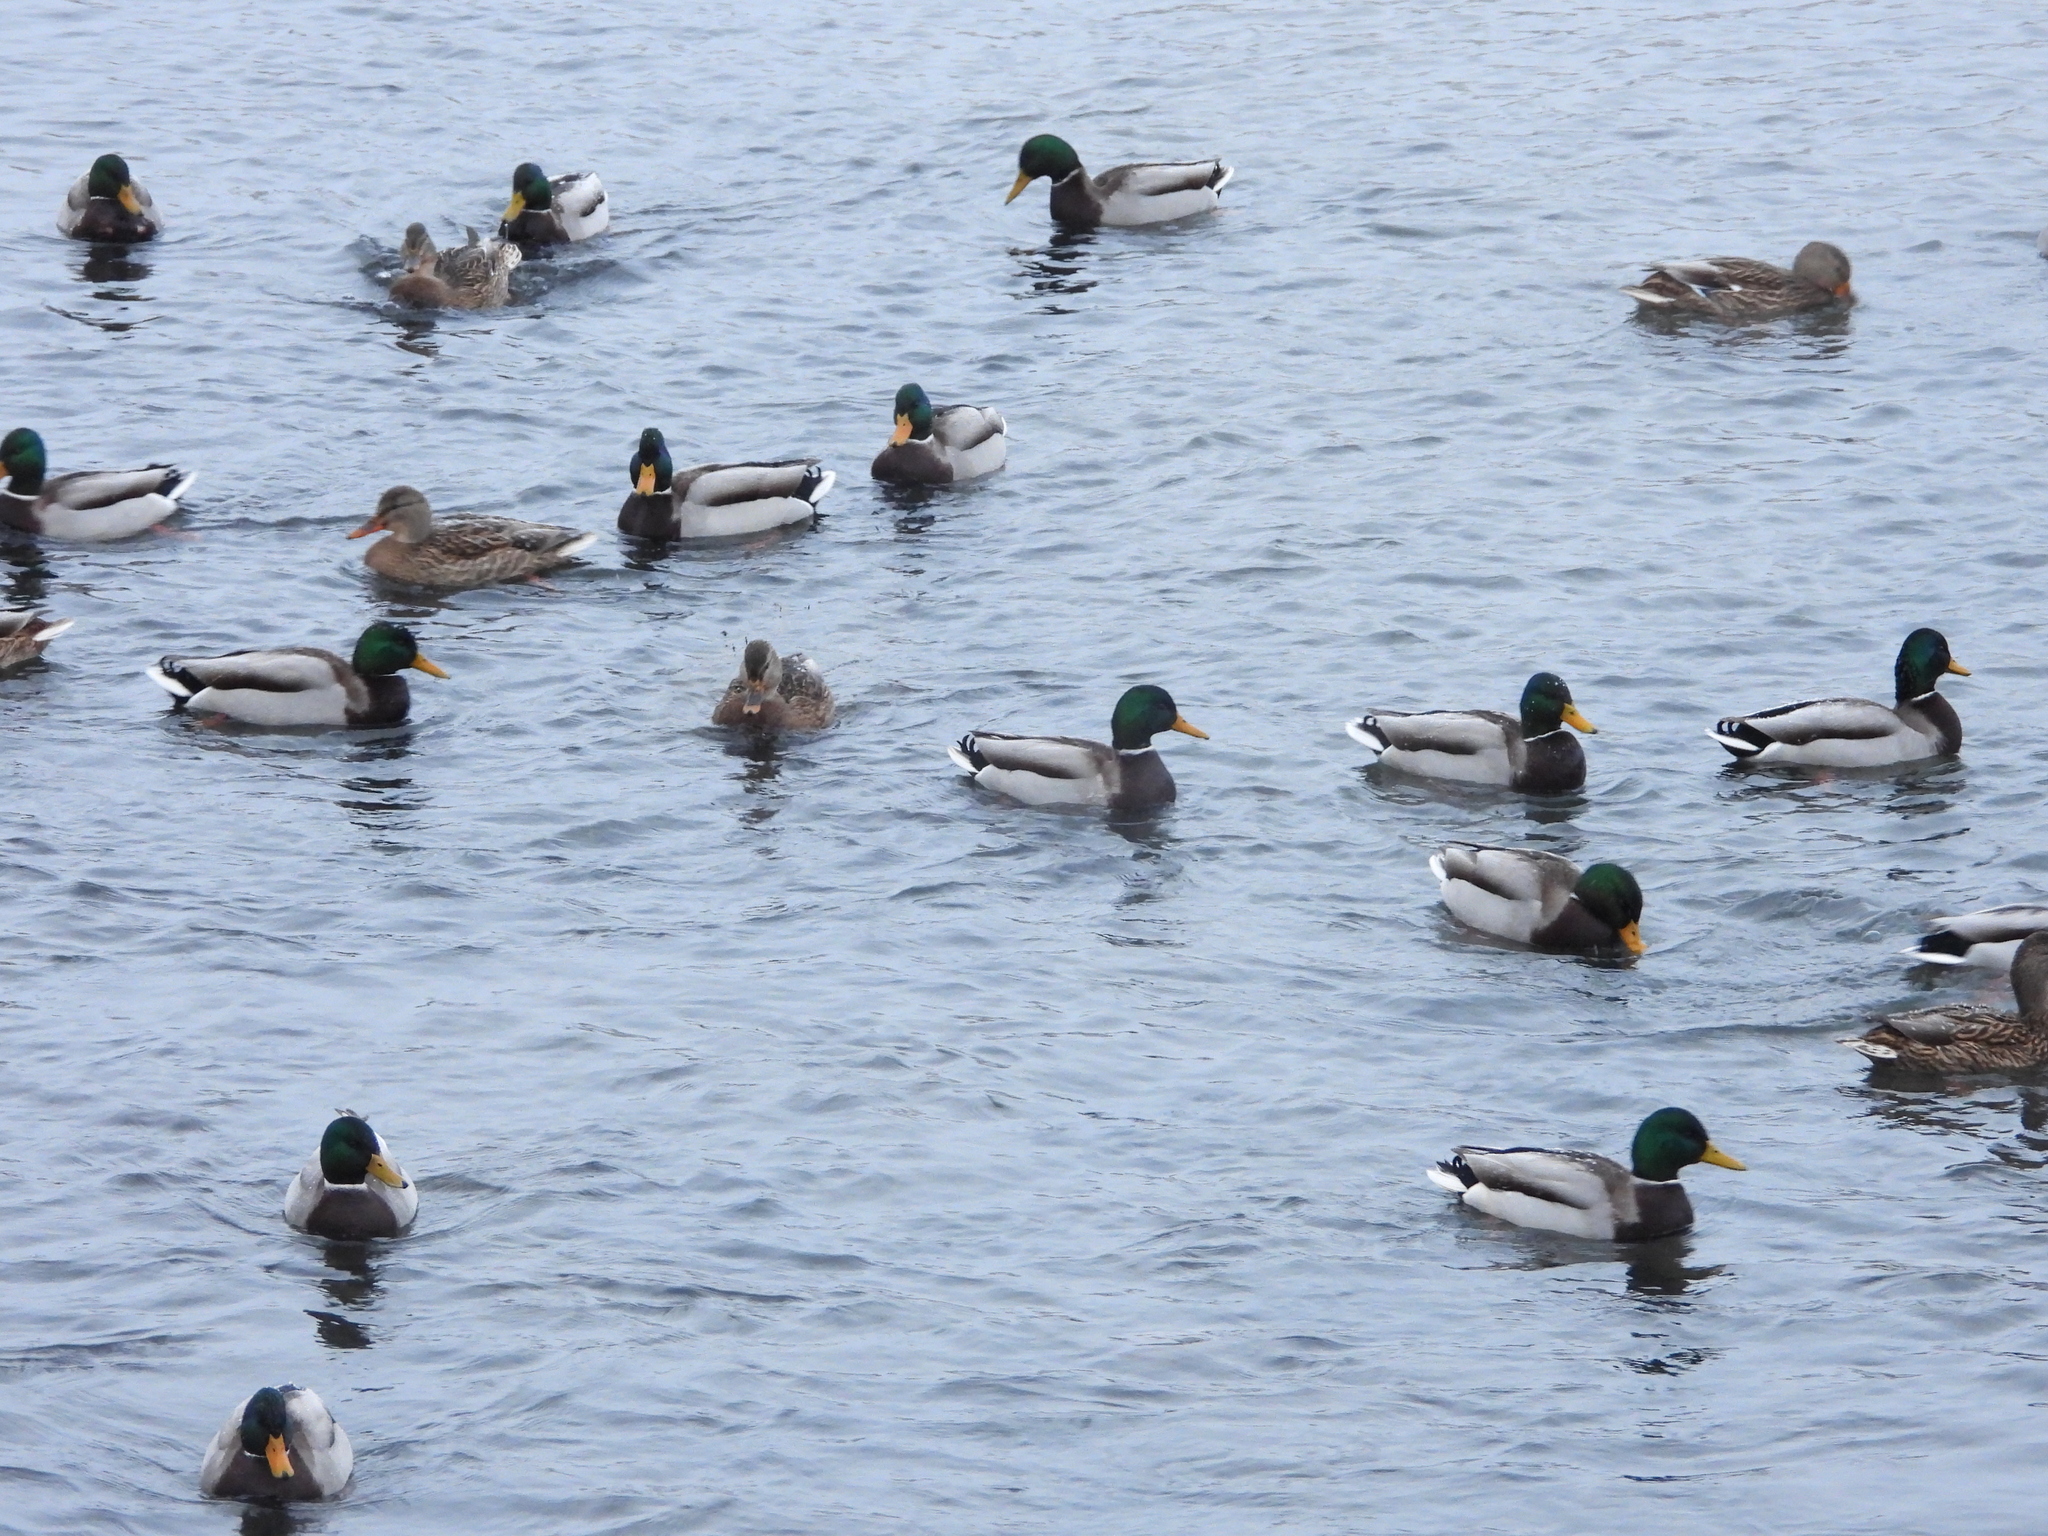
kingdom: Animalia
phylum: Chordata
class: Aves
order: Anseriformes
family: Anatidae
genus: Anas
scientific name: Anas platyrhynchos
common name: Mallard
